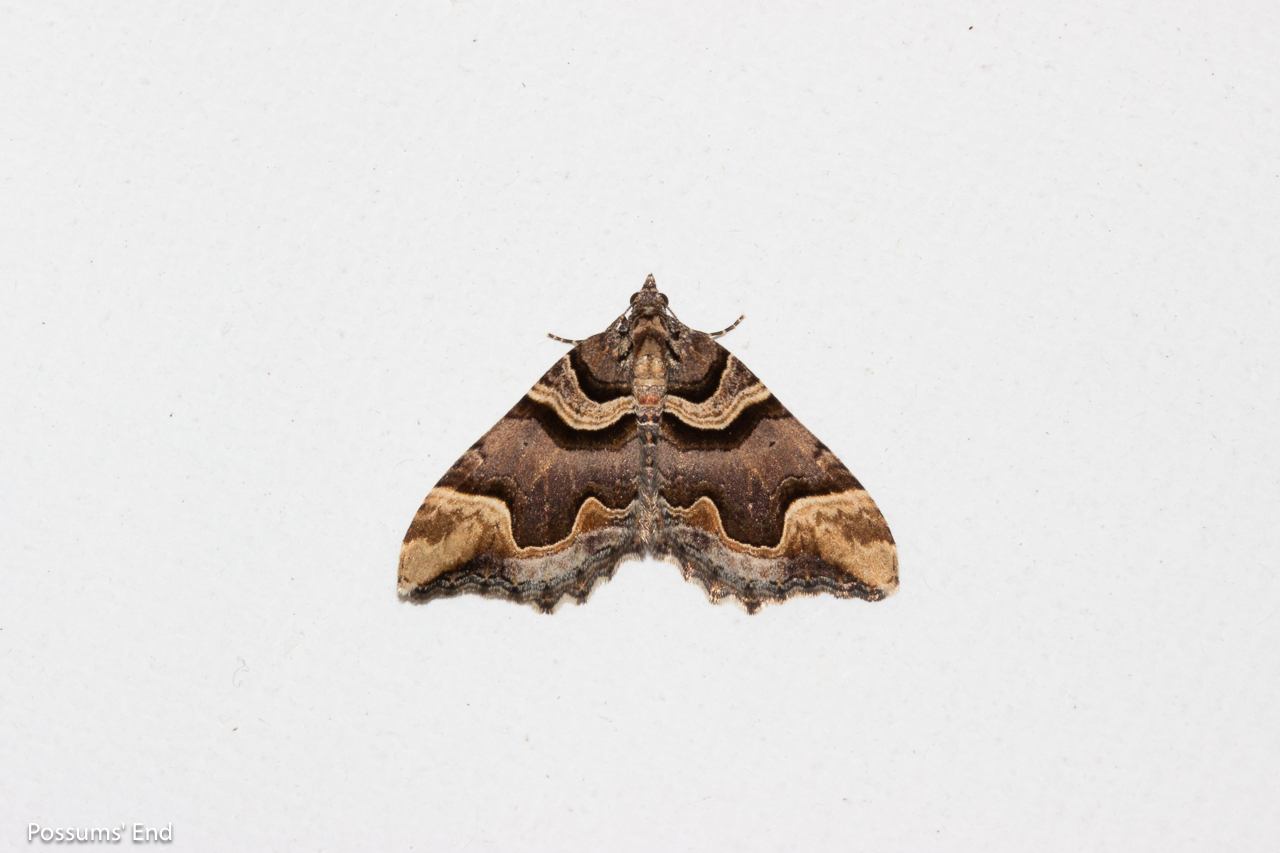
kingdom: Animalia
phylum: Arthropoda
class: Insecta
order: Lepidoptera
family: Geometridae
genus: Asaphodes
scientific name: Asaphodes chlamydota
